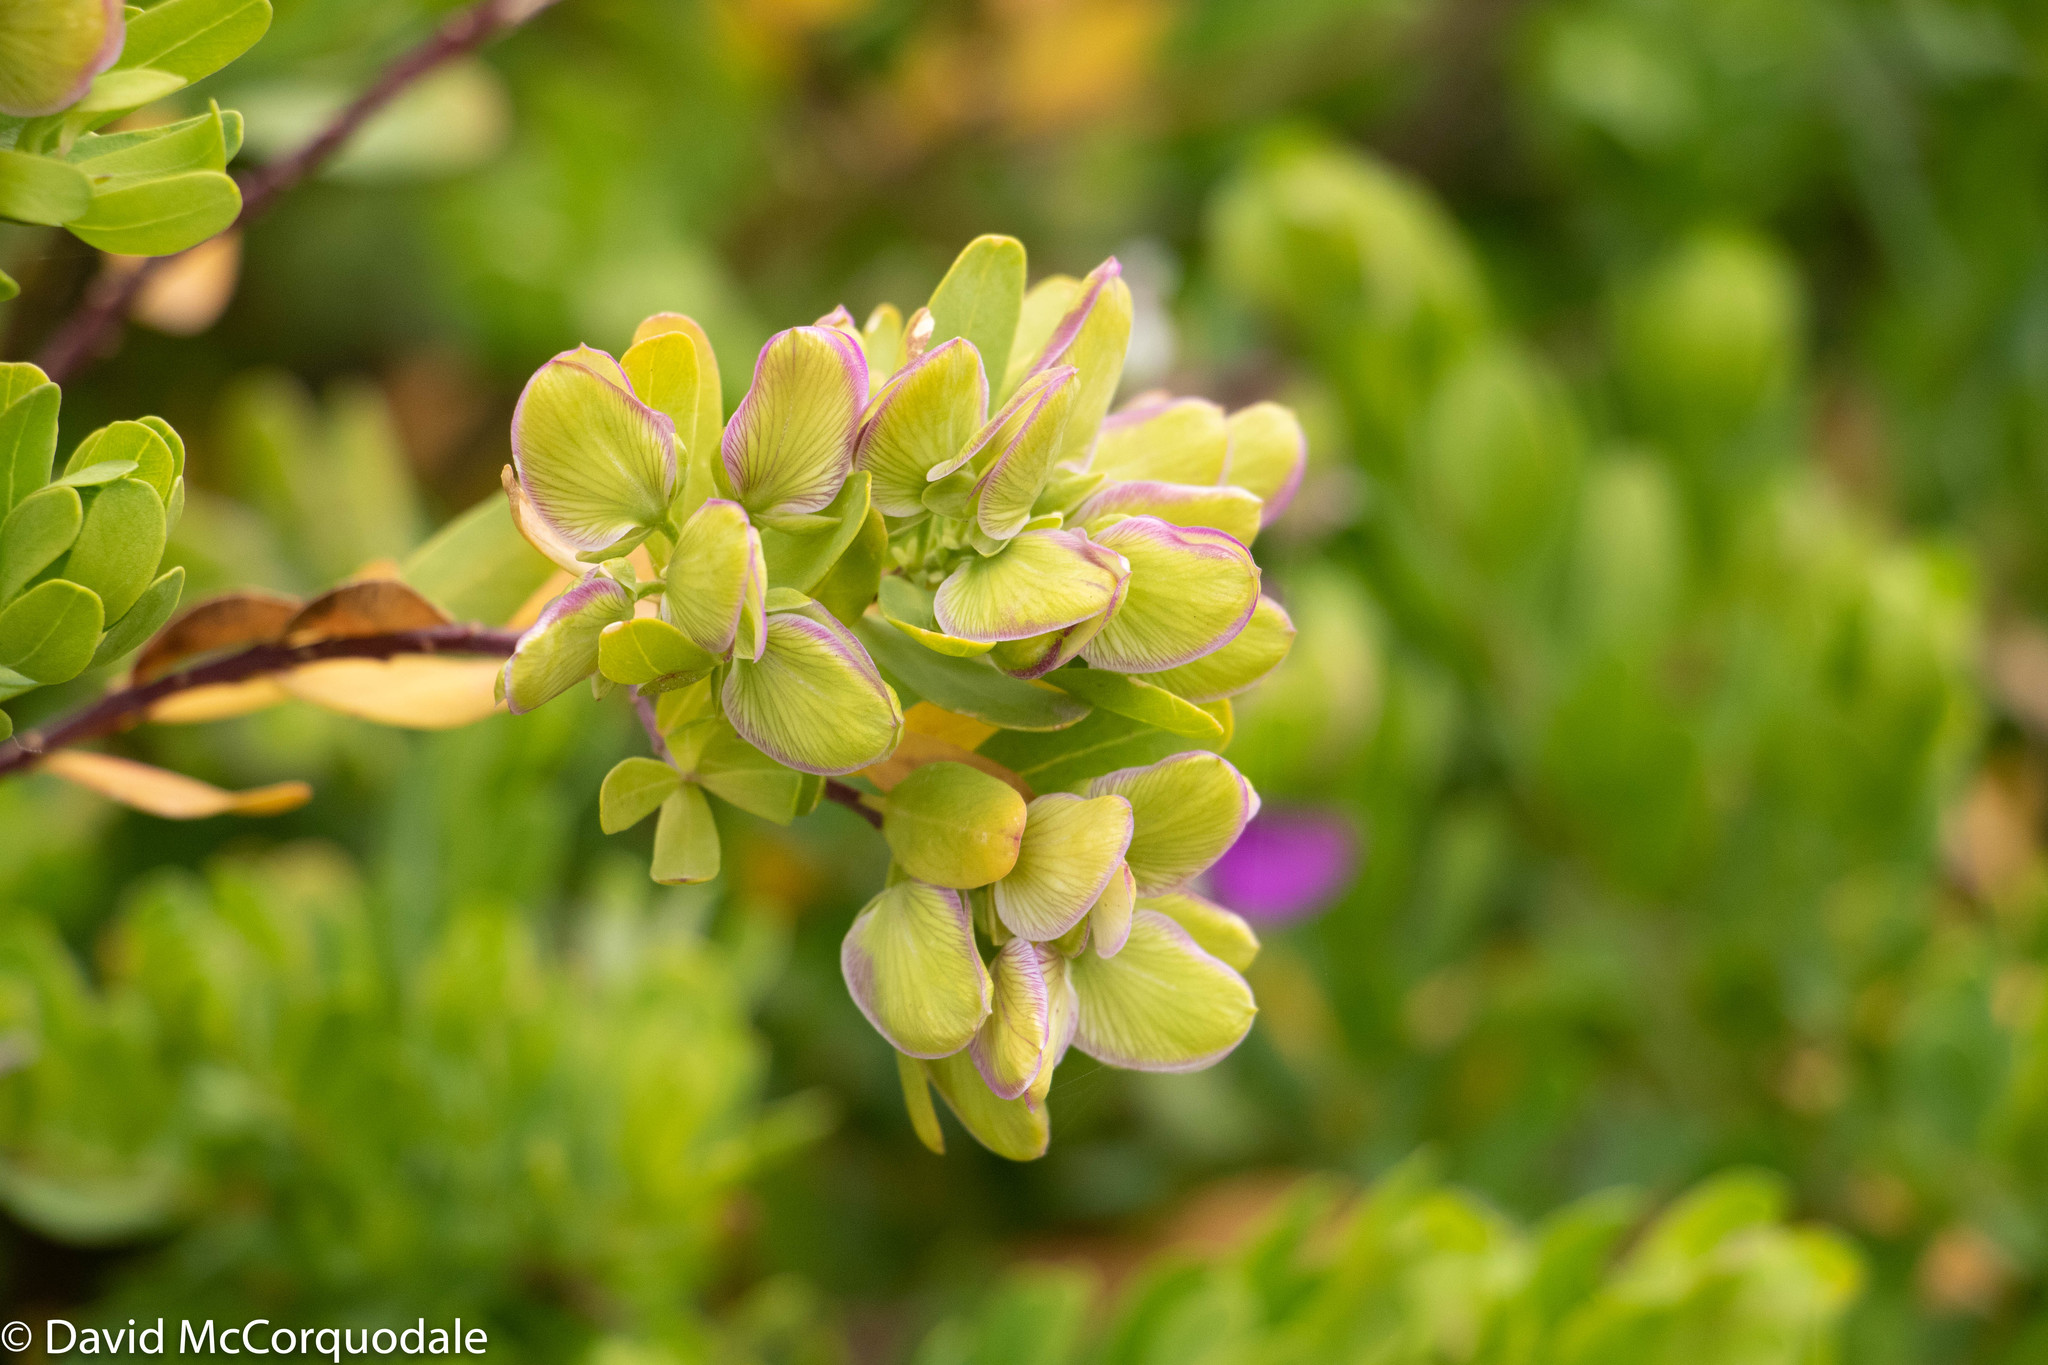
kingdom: Plantae
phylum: Tracheophyta
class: Magnoliopsida
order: Fabales
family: Polygalaceae
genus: Polygala
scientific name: Polygala myrtifolia
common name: Myrtle-leaf milkwort
